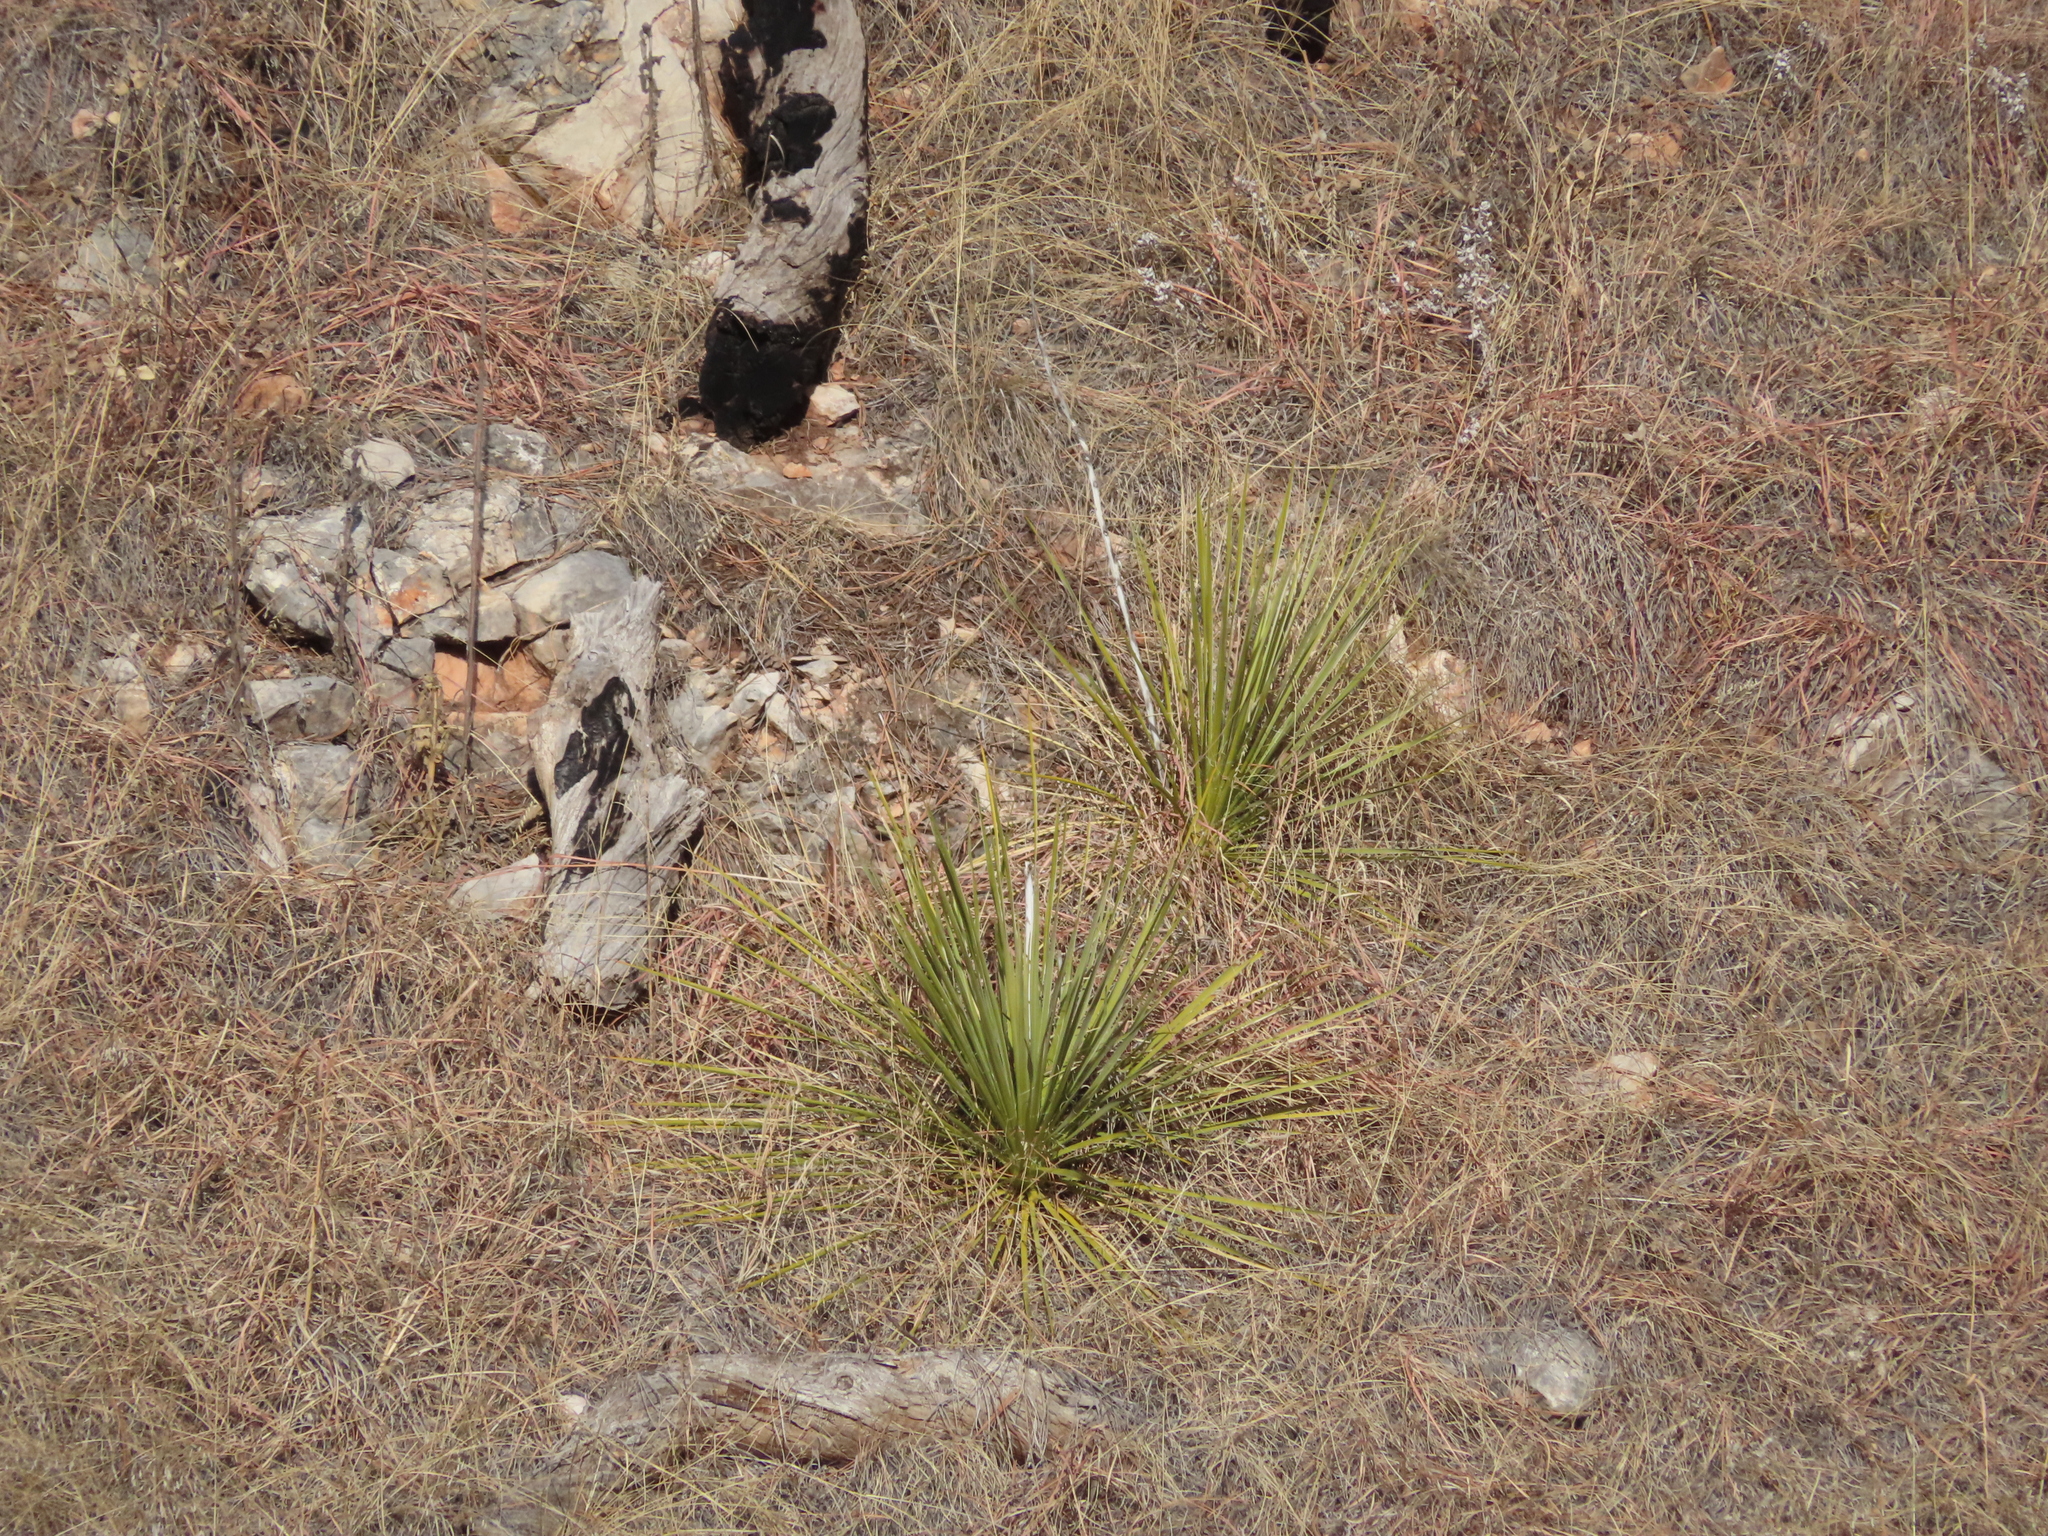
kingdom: Plantae
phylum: Tracheophyta
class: Liliopsida
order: Asparagales
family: Asparagaceae
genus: Yucca
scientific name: Yucca glauca
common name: Great plains yucca
